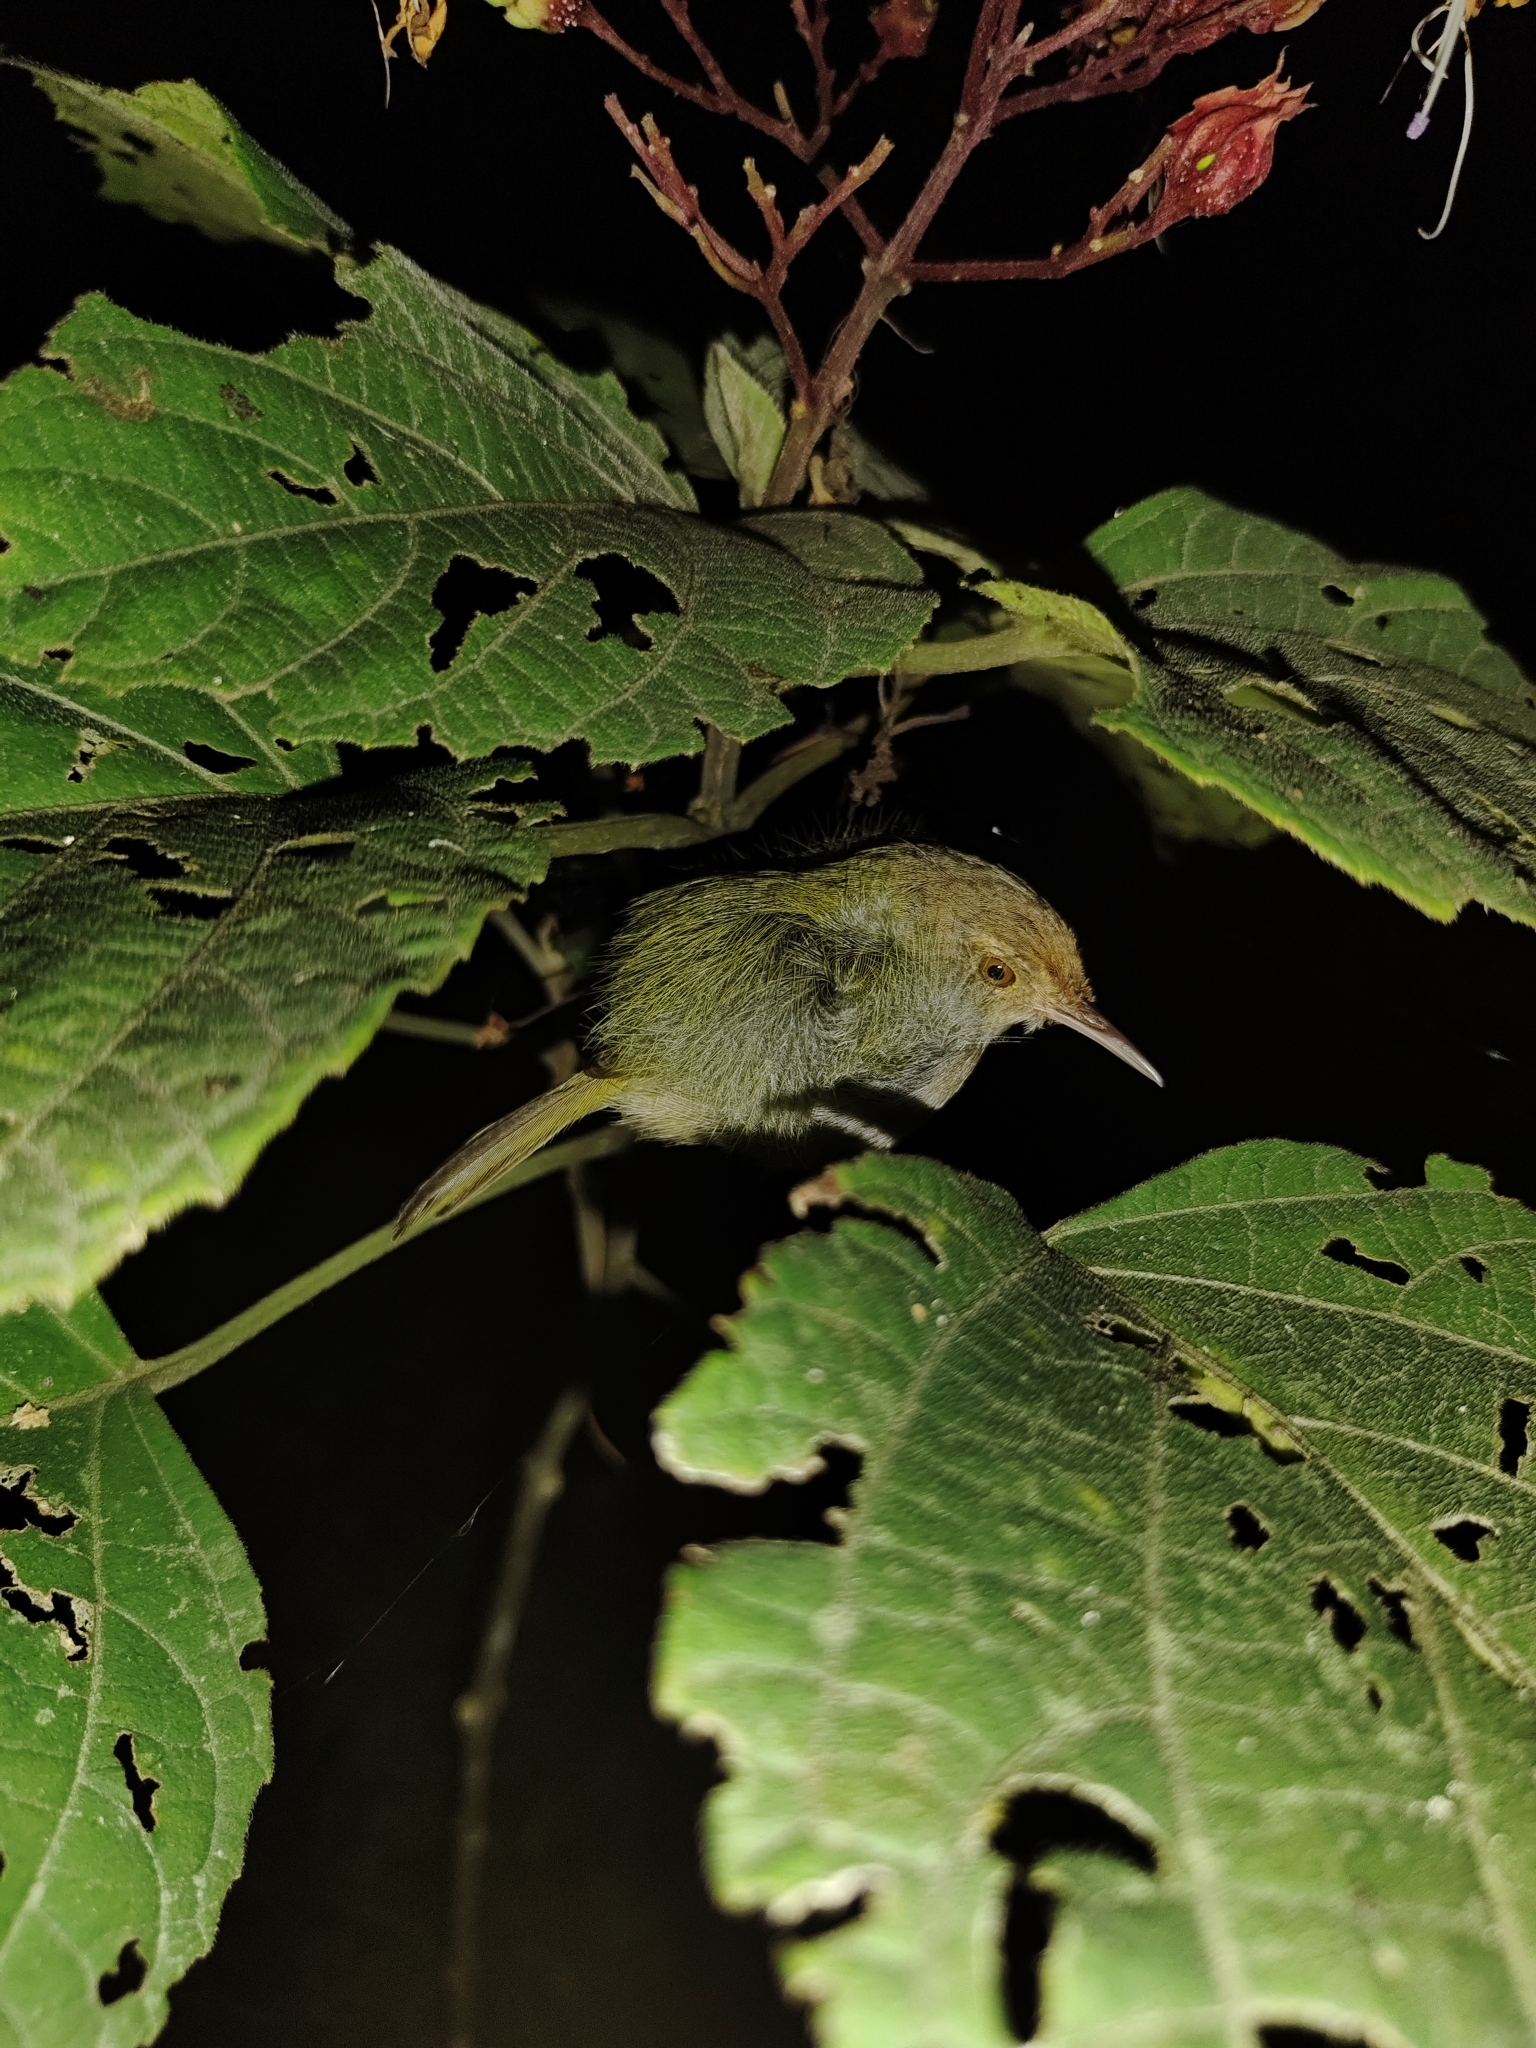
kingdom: Animalia
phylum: Chordata
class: Aves
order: Passeriformes
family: Cisticolidae
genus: Orthotomus
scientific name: Orthotomus sutorius
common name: Common tailorbird
